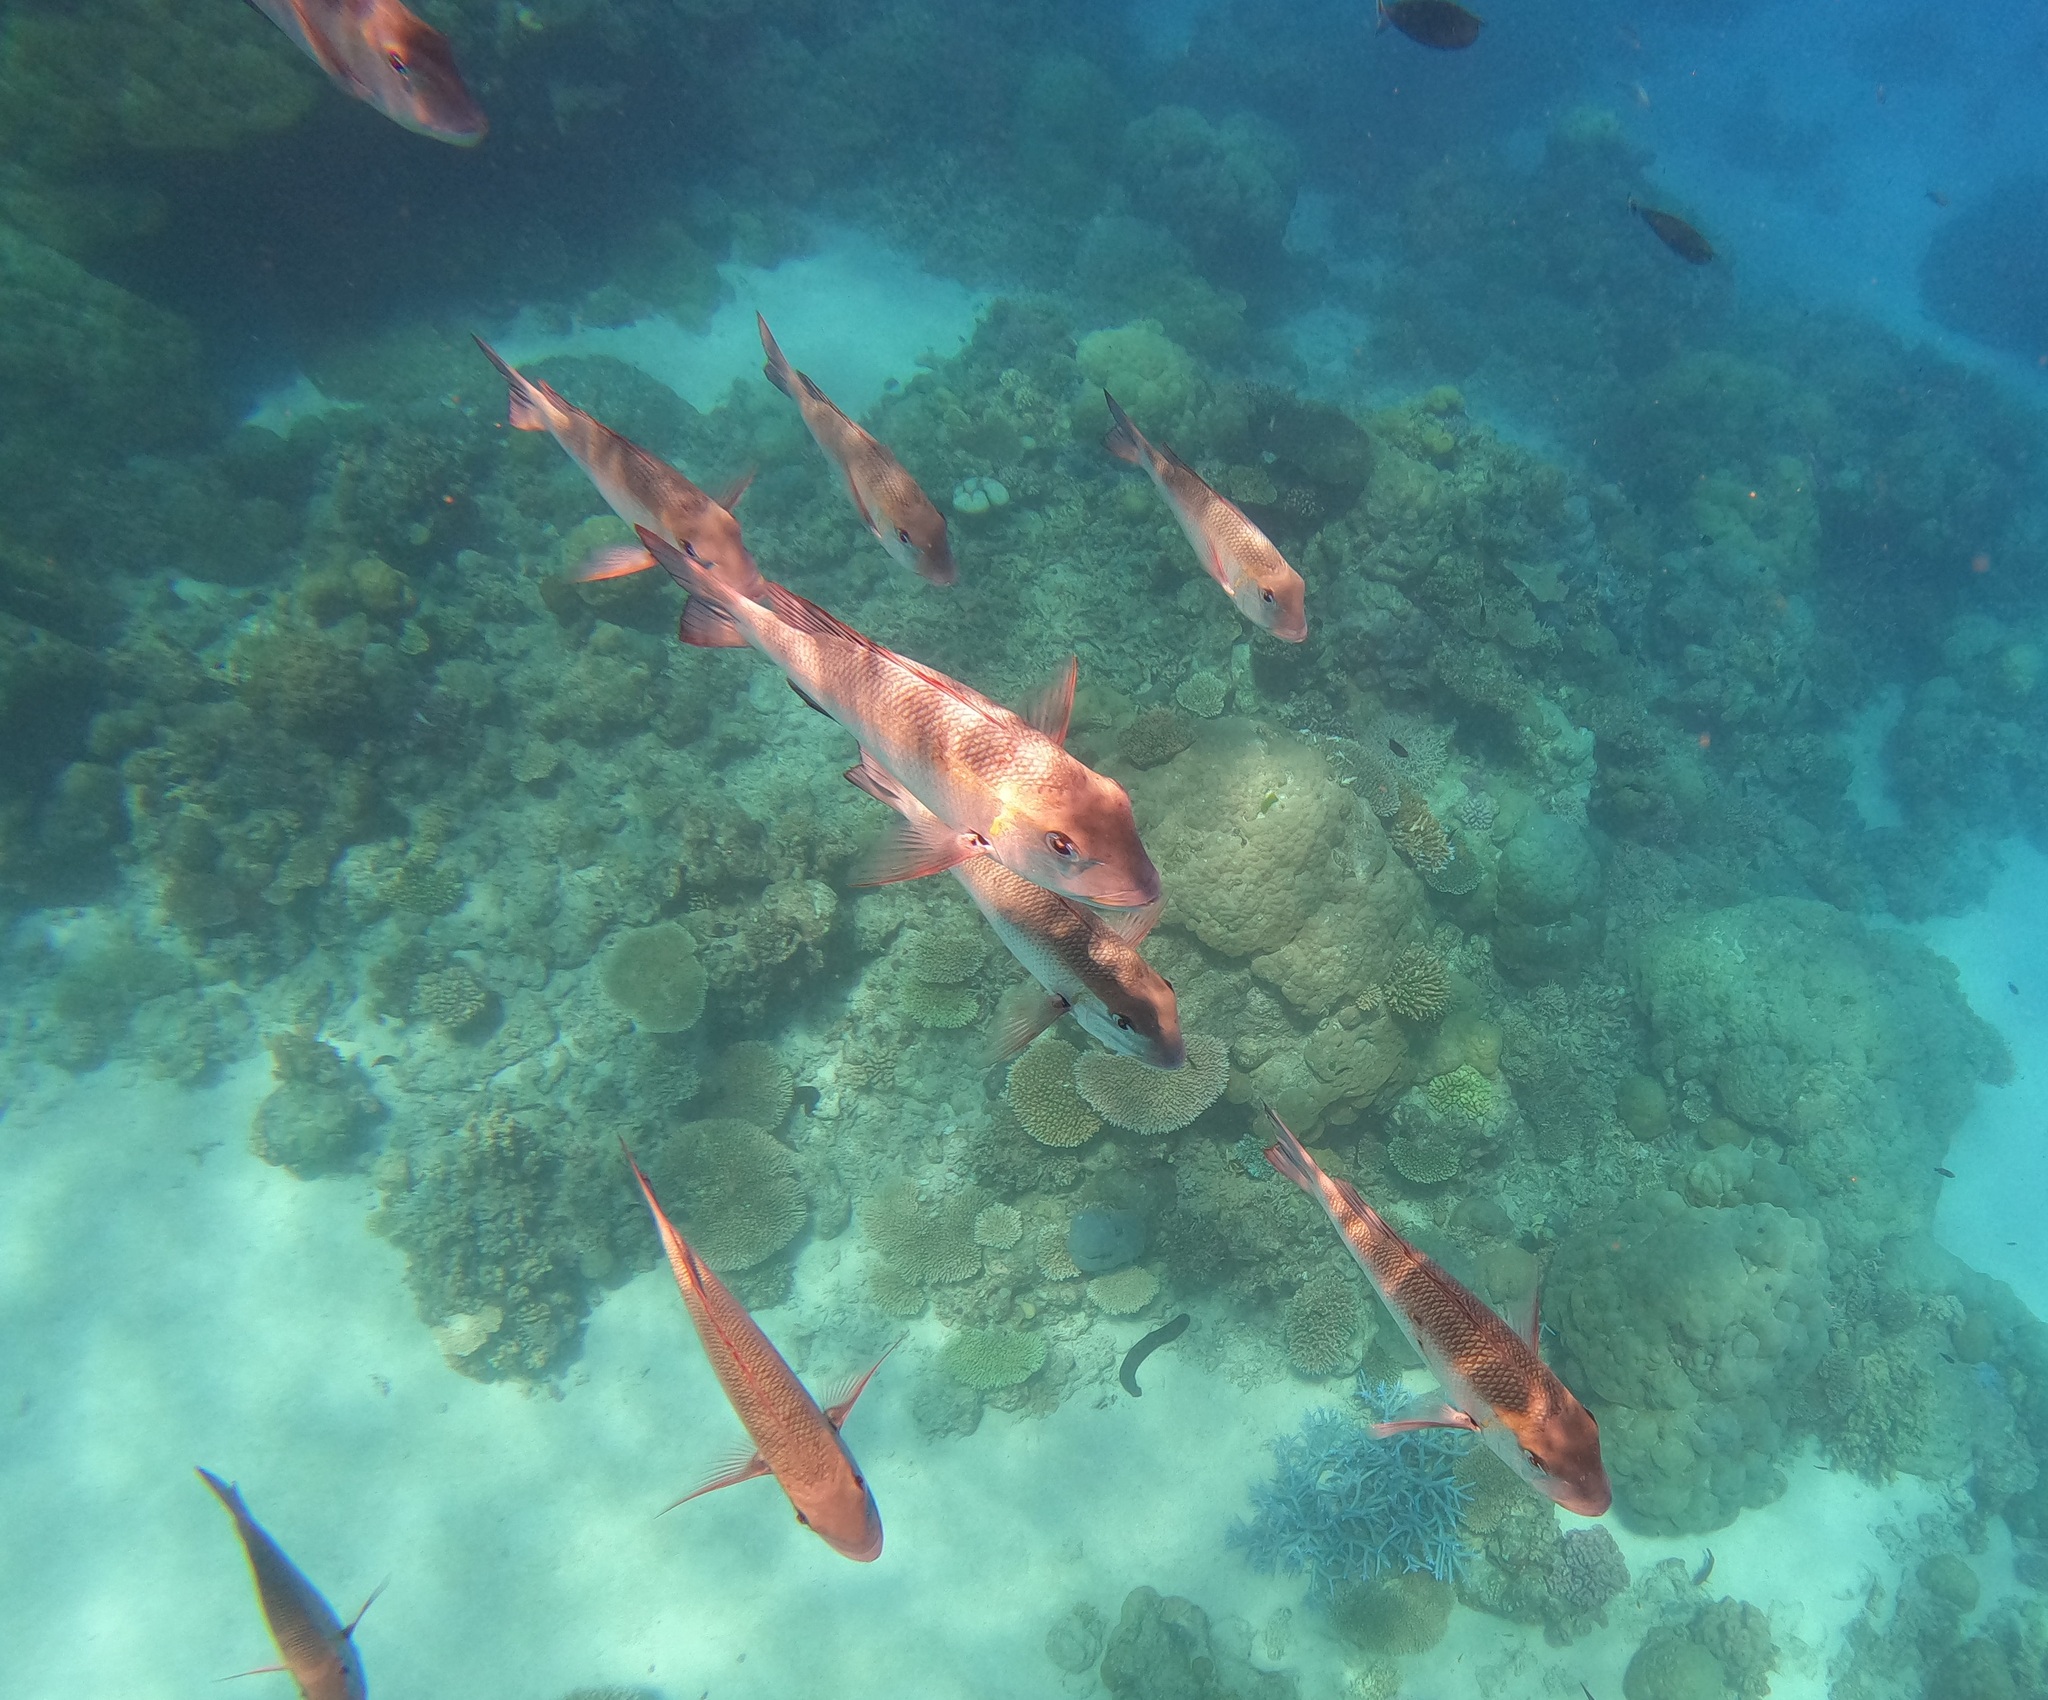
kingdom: Animalia
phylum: Chordata
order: Perciformes
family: Lethrinidae
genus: Monotaxis
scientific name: Monotaxis grandoculis
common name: Bigeye emperor
